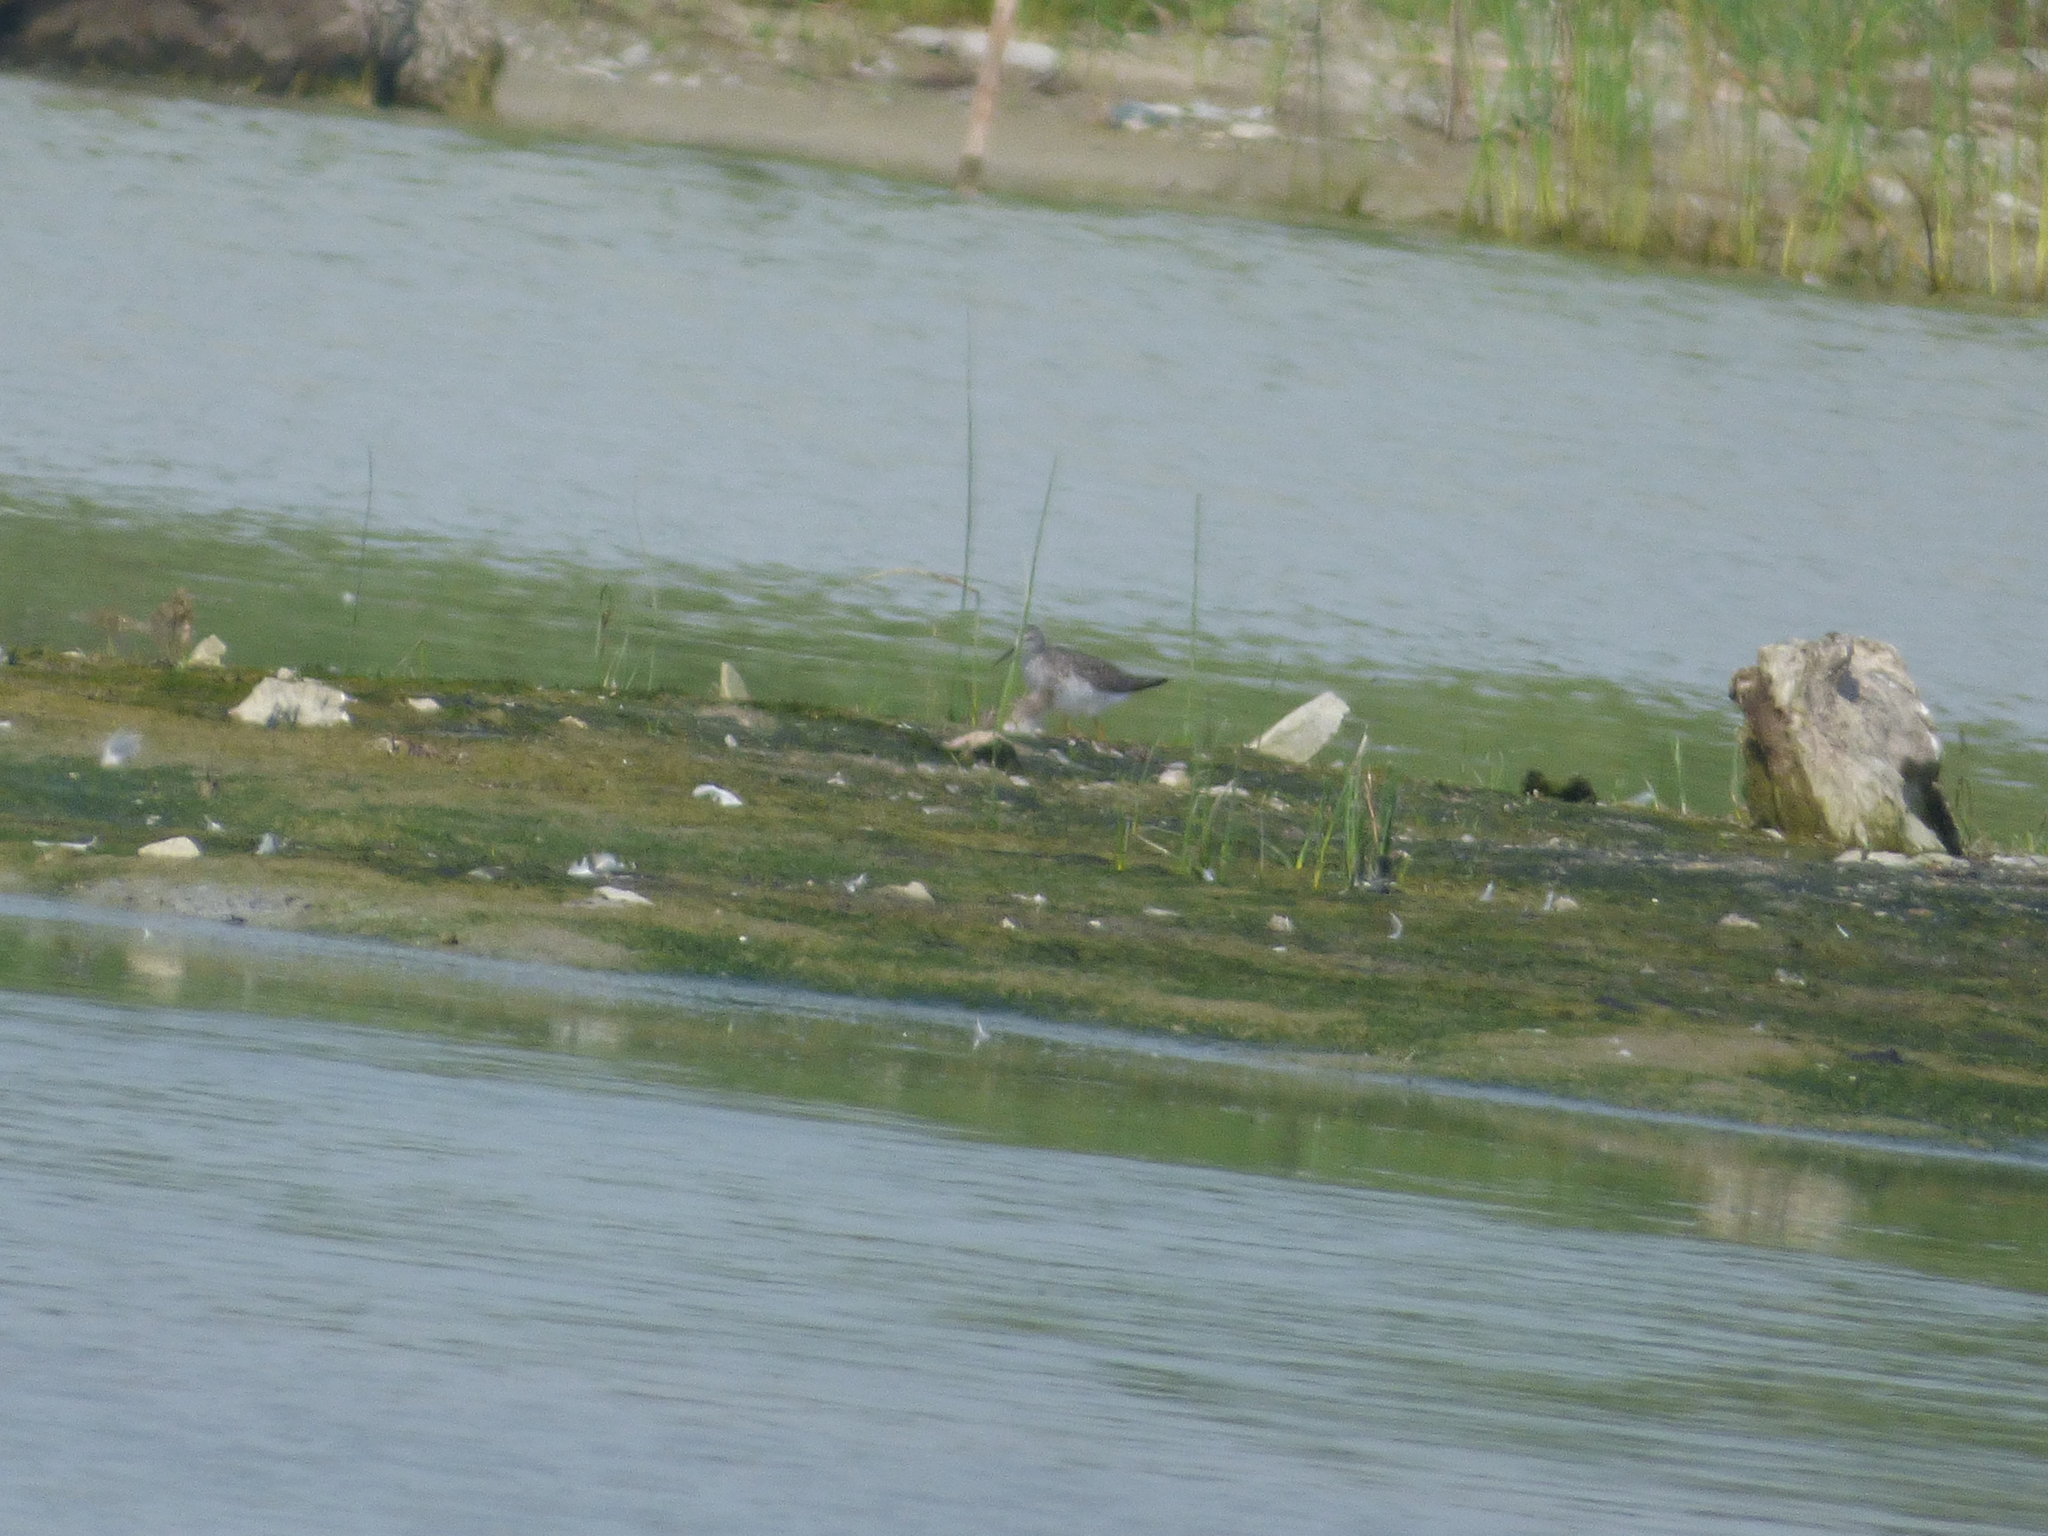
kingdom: Animalia
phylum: Chordata
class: Aves
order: Charadriiformes
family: Scolopacidae
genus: Tringa
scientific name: Tringa flavipes
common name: Lesser yellowlegs
